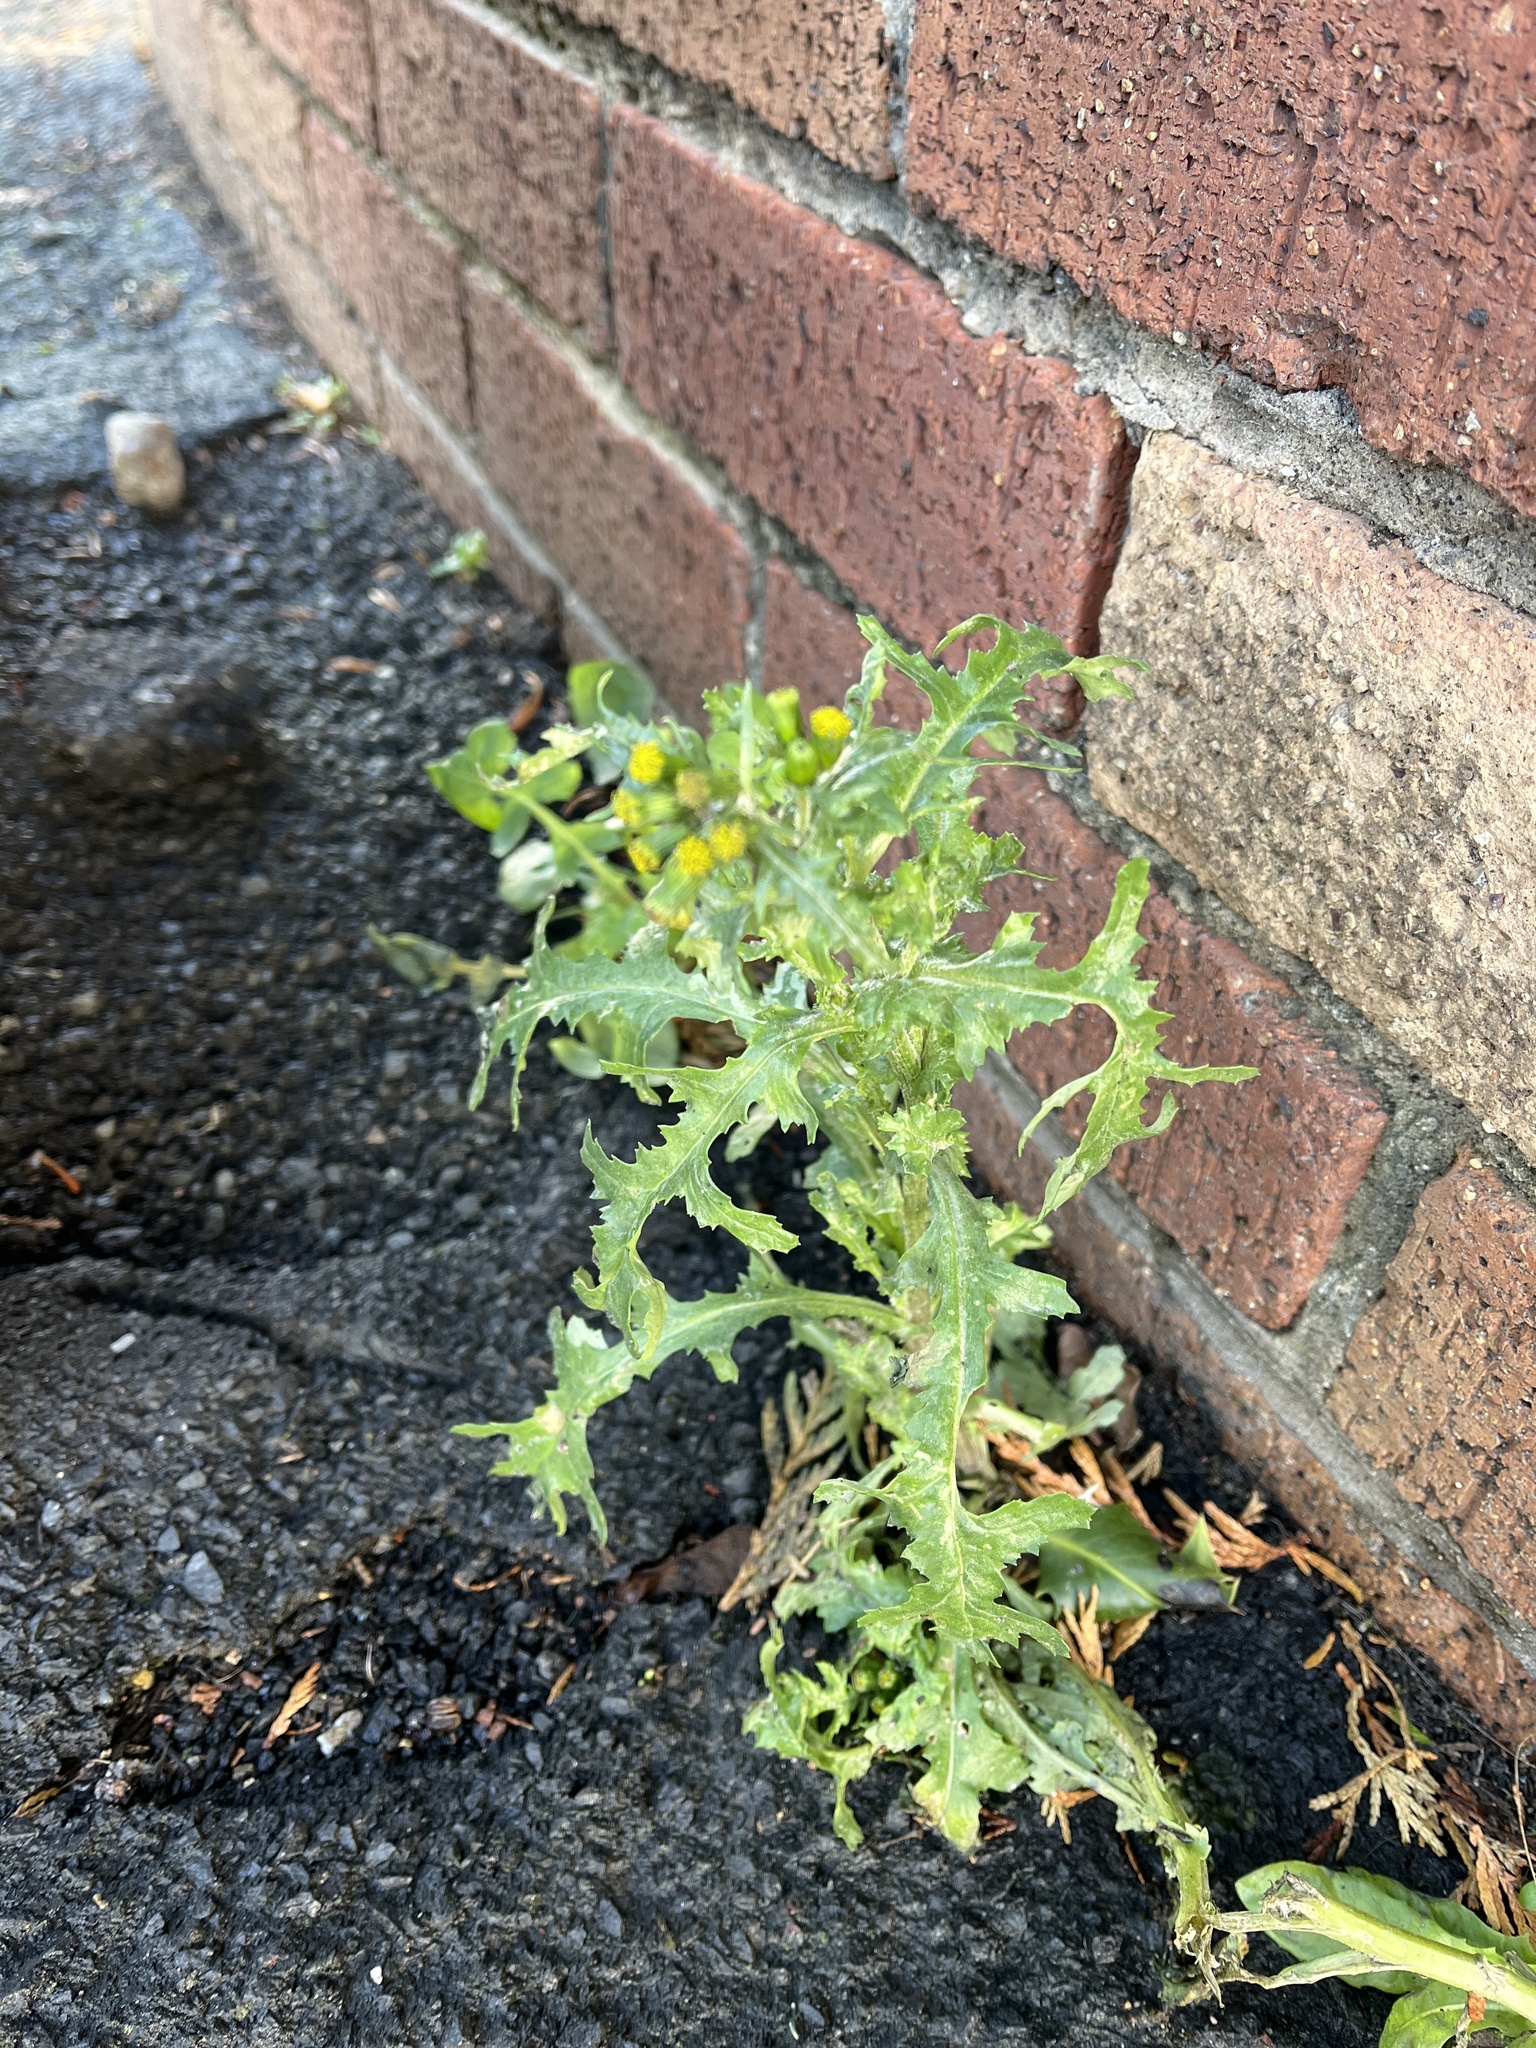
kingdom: Plantae
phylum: Tracheophyta
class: Magnoliopsida
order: Asterales
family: Asteraceae
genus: Senecio
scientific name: Senecio vulgaris
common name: Old-man-in-the-spring
